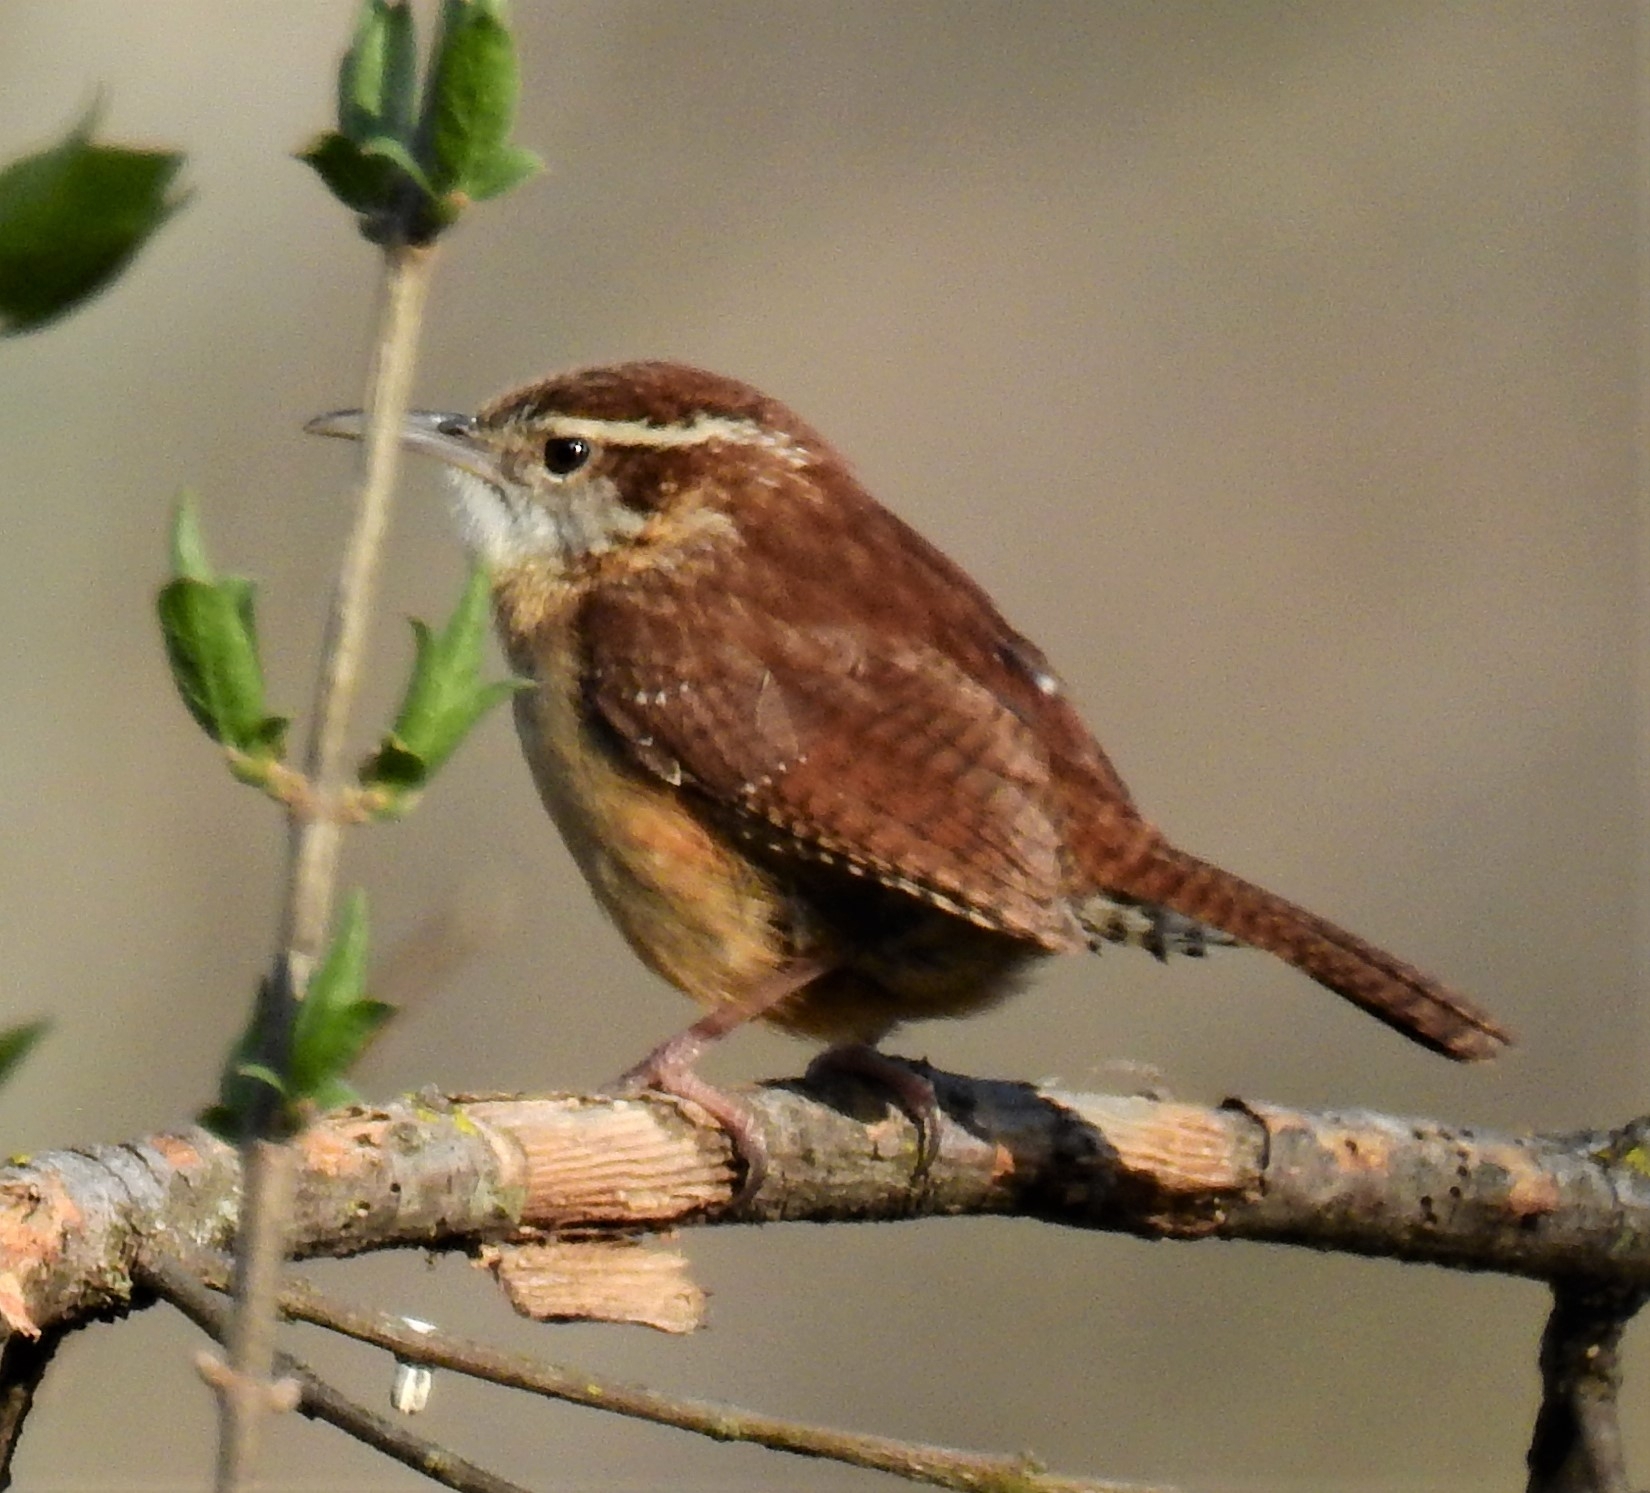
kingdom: Animalia
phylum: Chordata
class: Aves
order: Passeriformes
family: Troglodytidae
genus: Thryothorus
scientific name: Thryothorus ludovicianus
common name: Carolina wren
